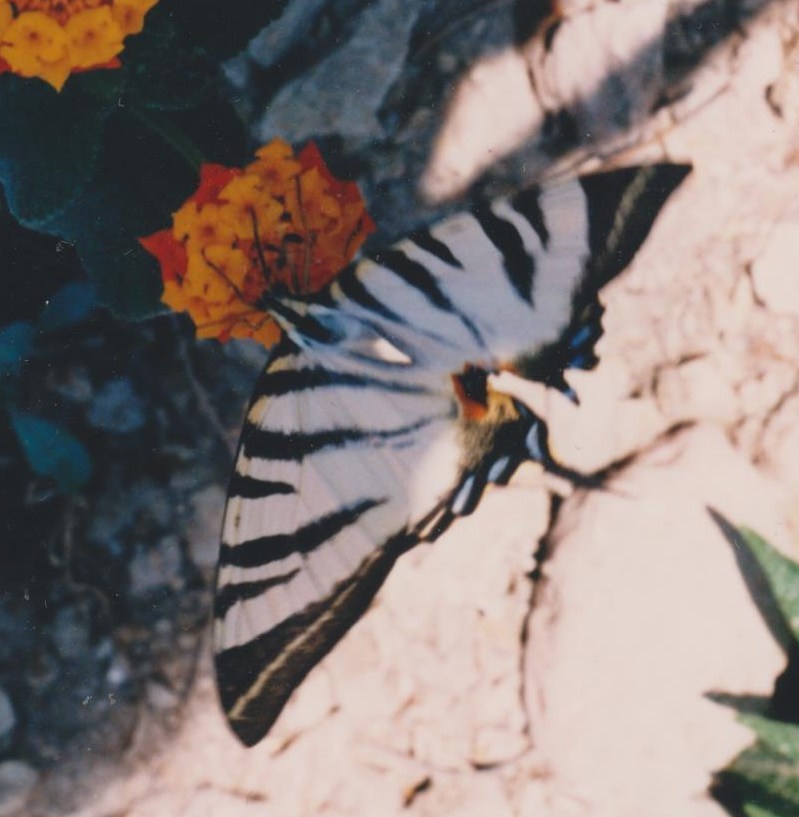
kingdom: Animalia
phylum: Arthropoda
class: Insecta
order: Lepidoptera
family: Papilionidae
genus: Iphiclides
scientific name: Iphiclides podalirius
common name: Scarce swallowtail
